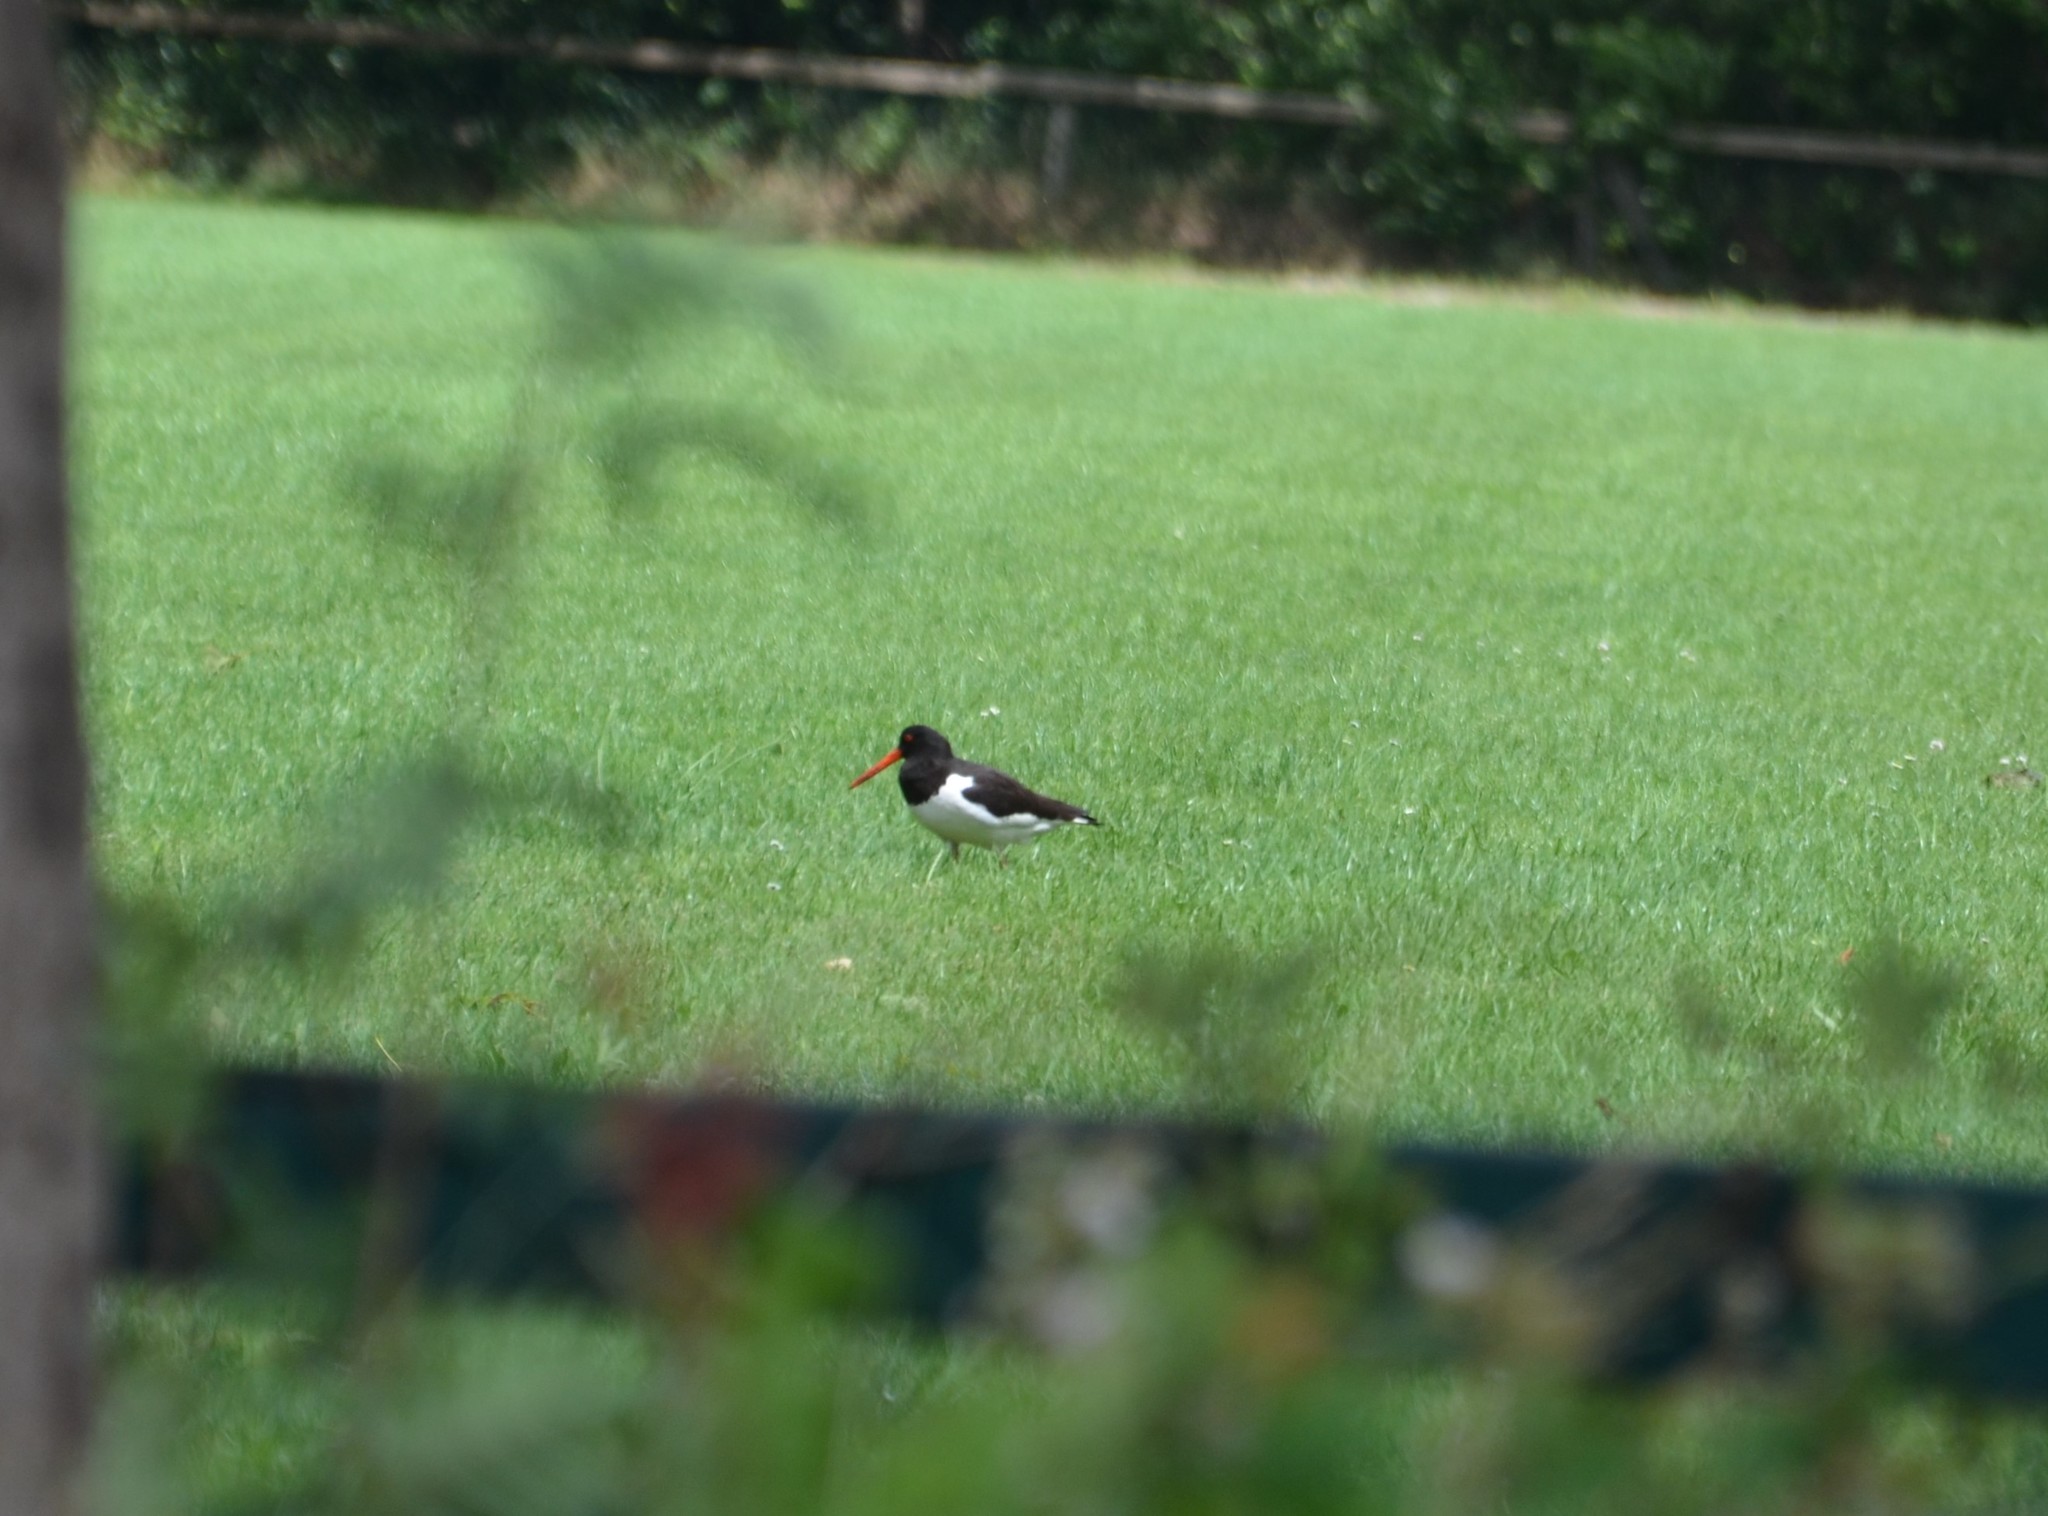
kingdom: Animalia
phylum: Chordata
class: Aves
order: Charadriiformes
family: Haematopodidae
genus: Haematopus
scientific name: Haematopus ostralegus
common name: Eurasian oystercatcher
